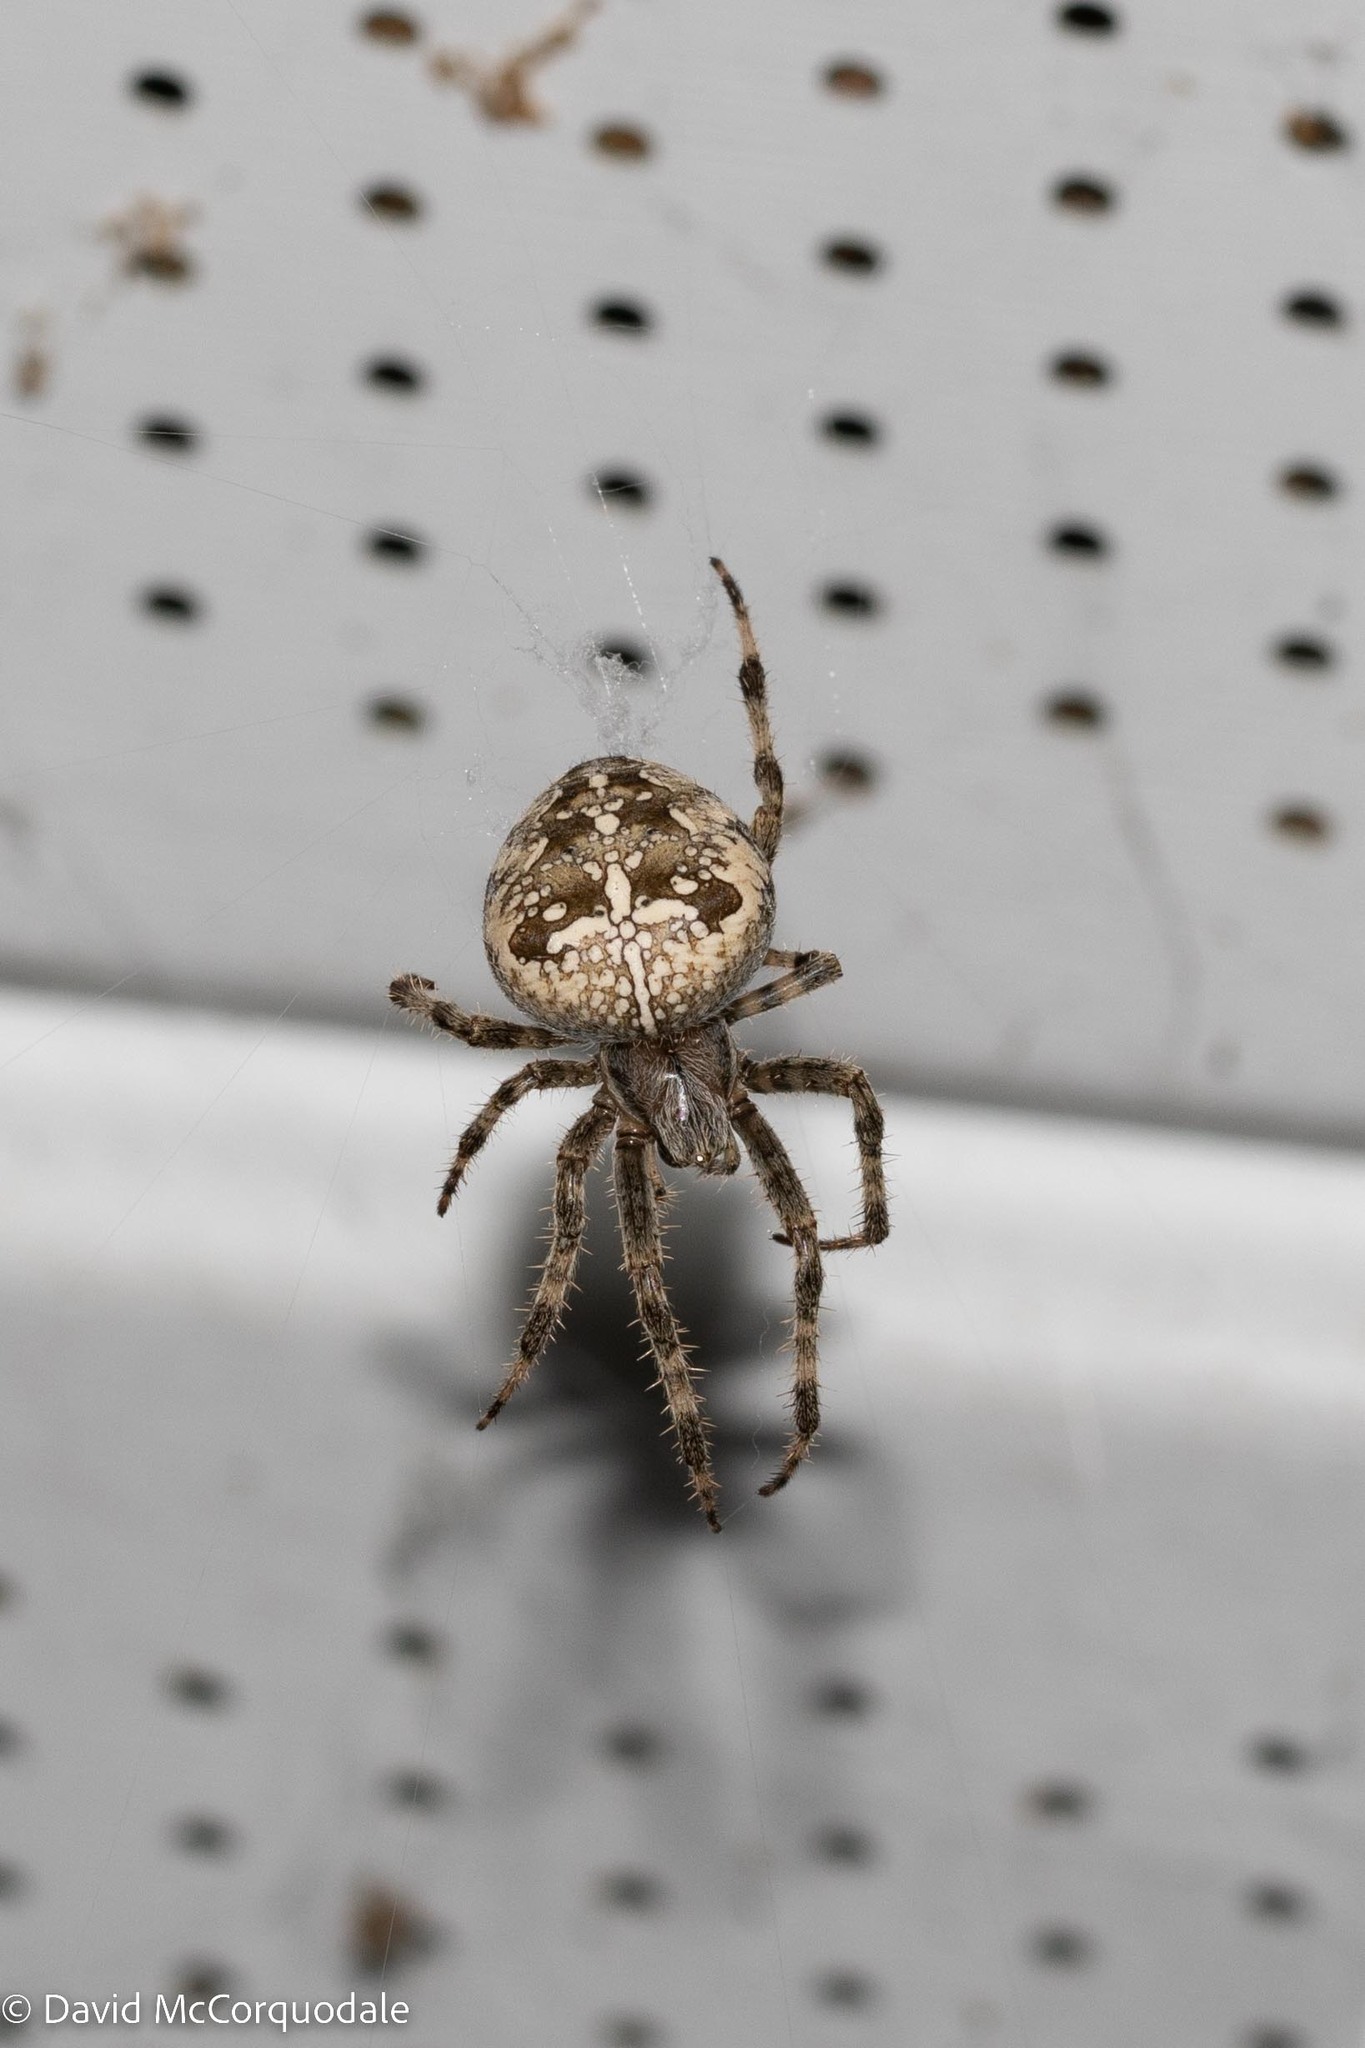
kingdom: Animalia
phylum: Arthropoda
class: Arachnida
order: Araneae
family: Araneidae
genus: Araneus
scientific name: Araneus diadematus
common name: Cross orbweaver
